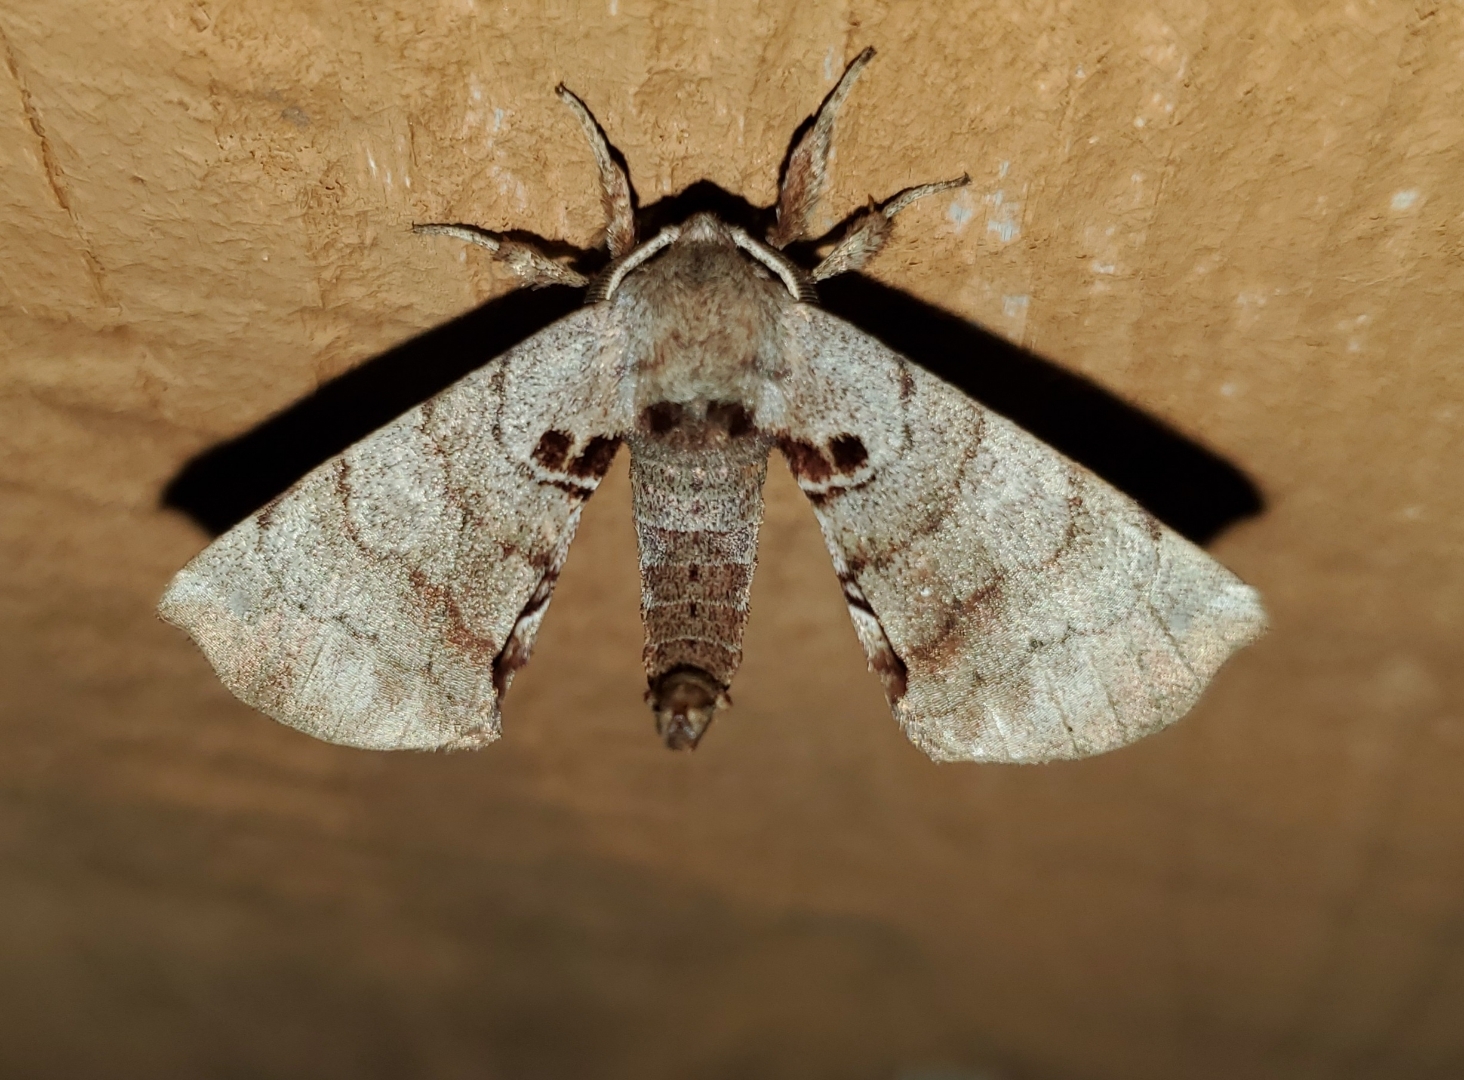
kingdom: Animalia
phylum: Arthropoda
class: Insecta
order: Lepidoptera
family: Apatelodidae
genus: Hygrochroa
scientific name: Hygrochroa Apatelodes torrefacta
